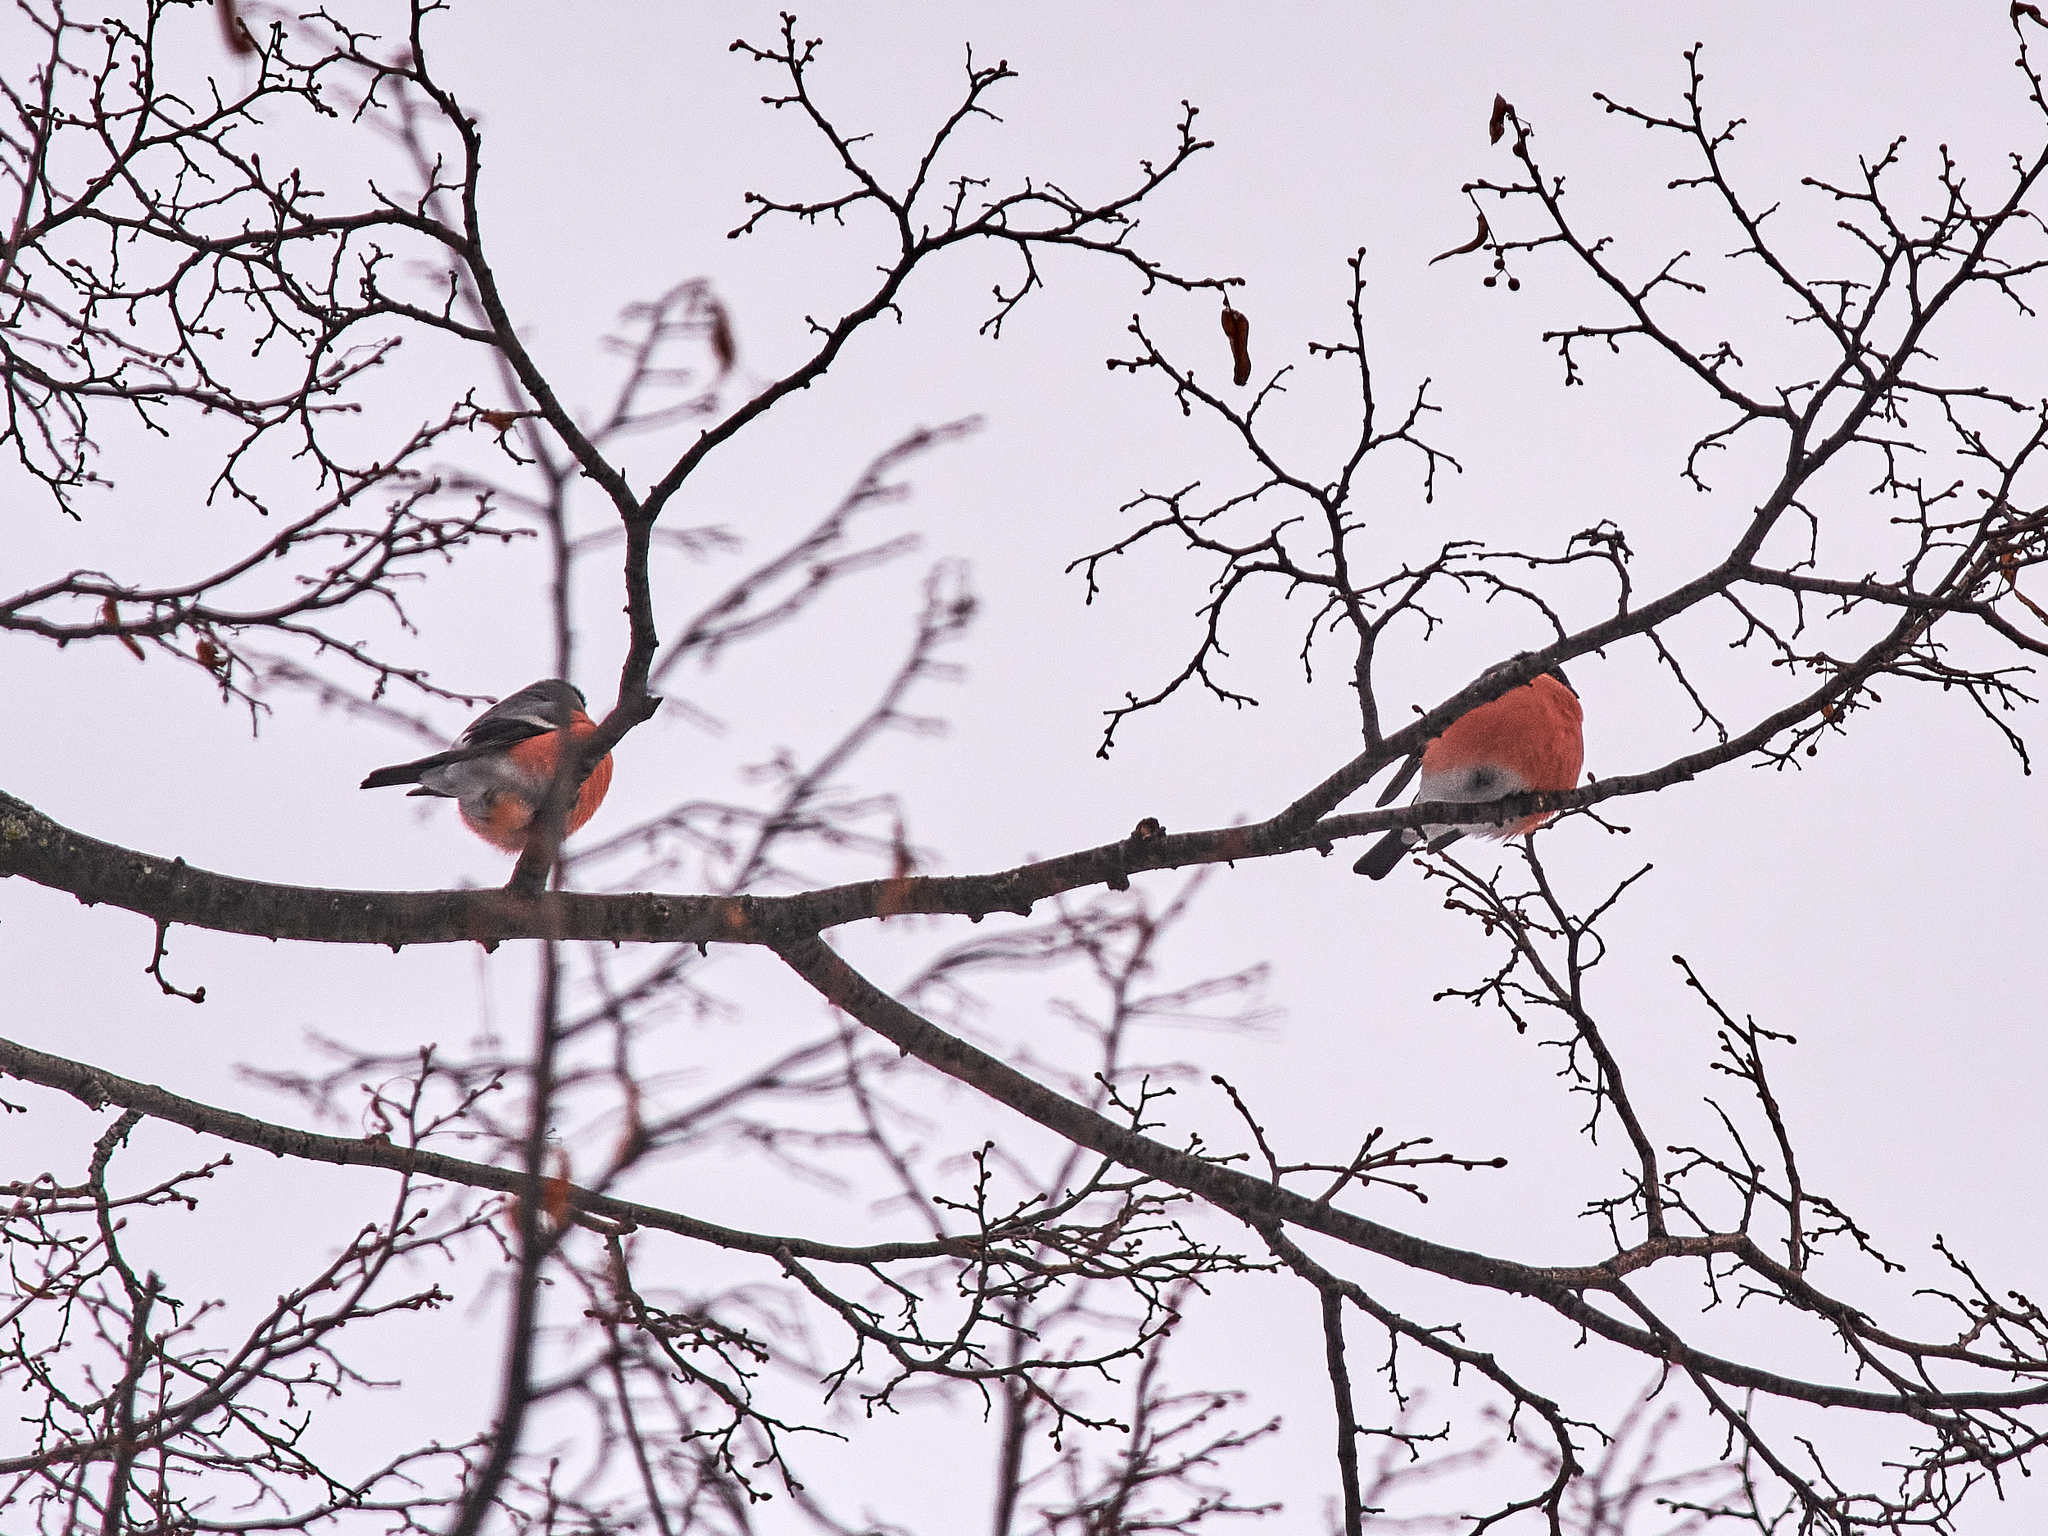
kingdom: Animalia
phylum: Chordata
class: Aves
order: Passeriformes
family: Fringillidae
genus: Pyrrhula
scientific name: Pyrrhula pyrrhula
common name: Eurasian bullfinch
